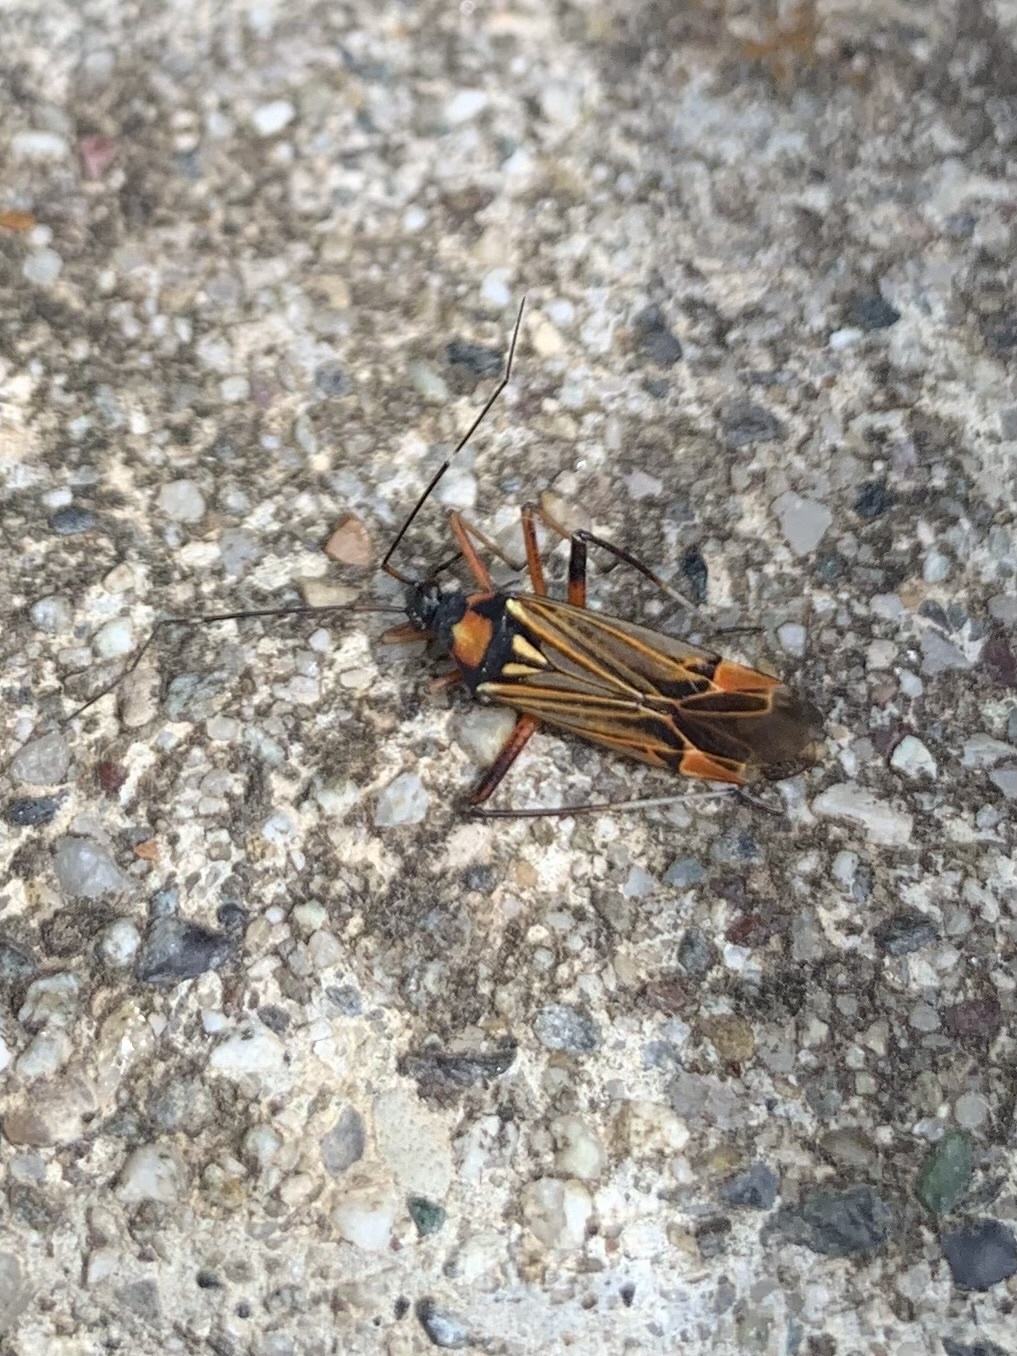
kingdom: Animalia
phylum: Arthropoda
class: Insecta
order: Hemiptera
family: Miridae
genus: Miris
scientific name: Miris striatus
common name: Fine streaked bugkin
